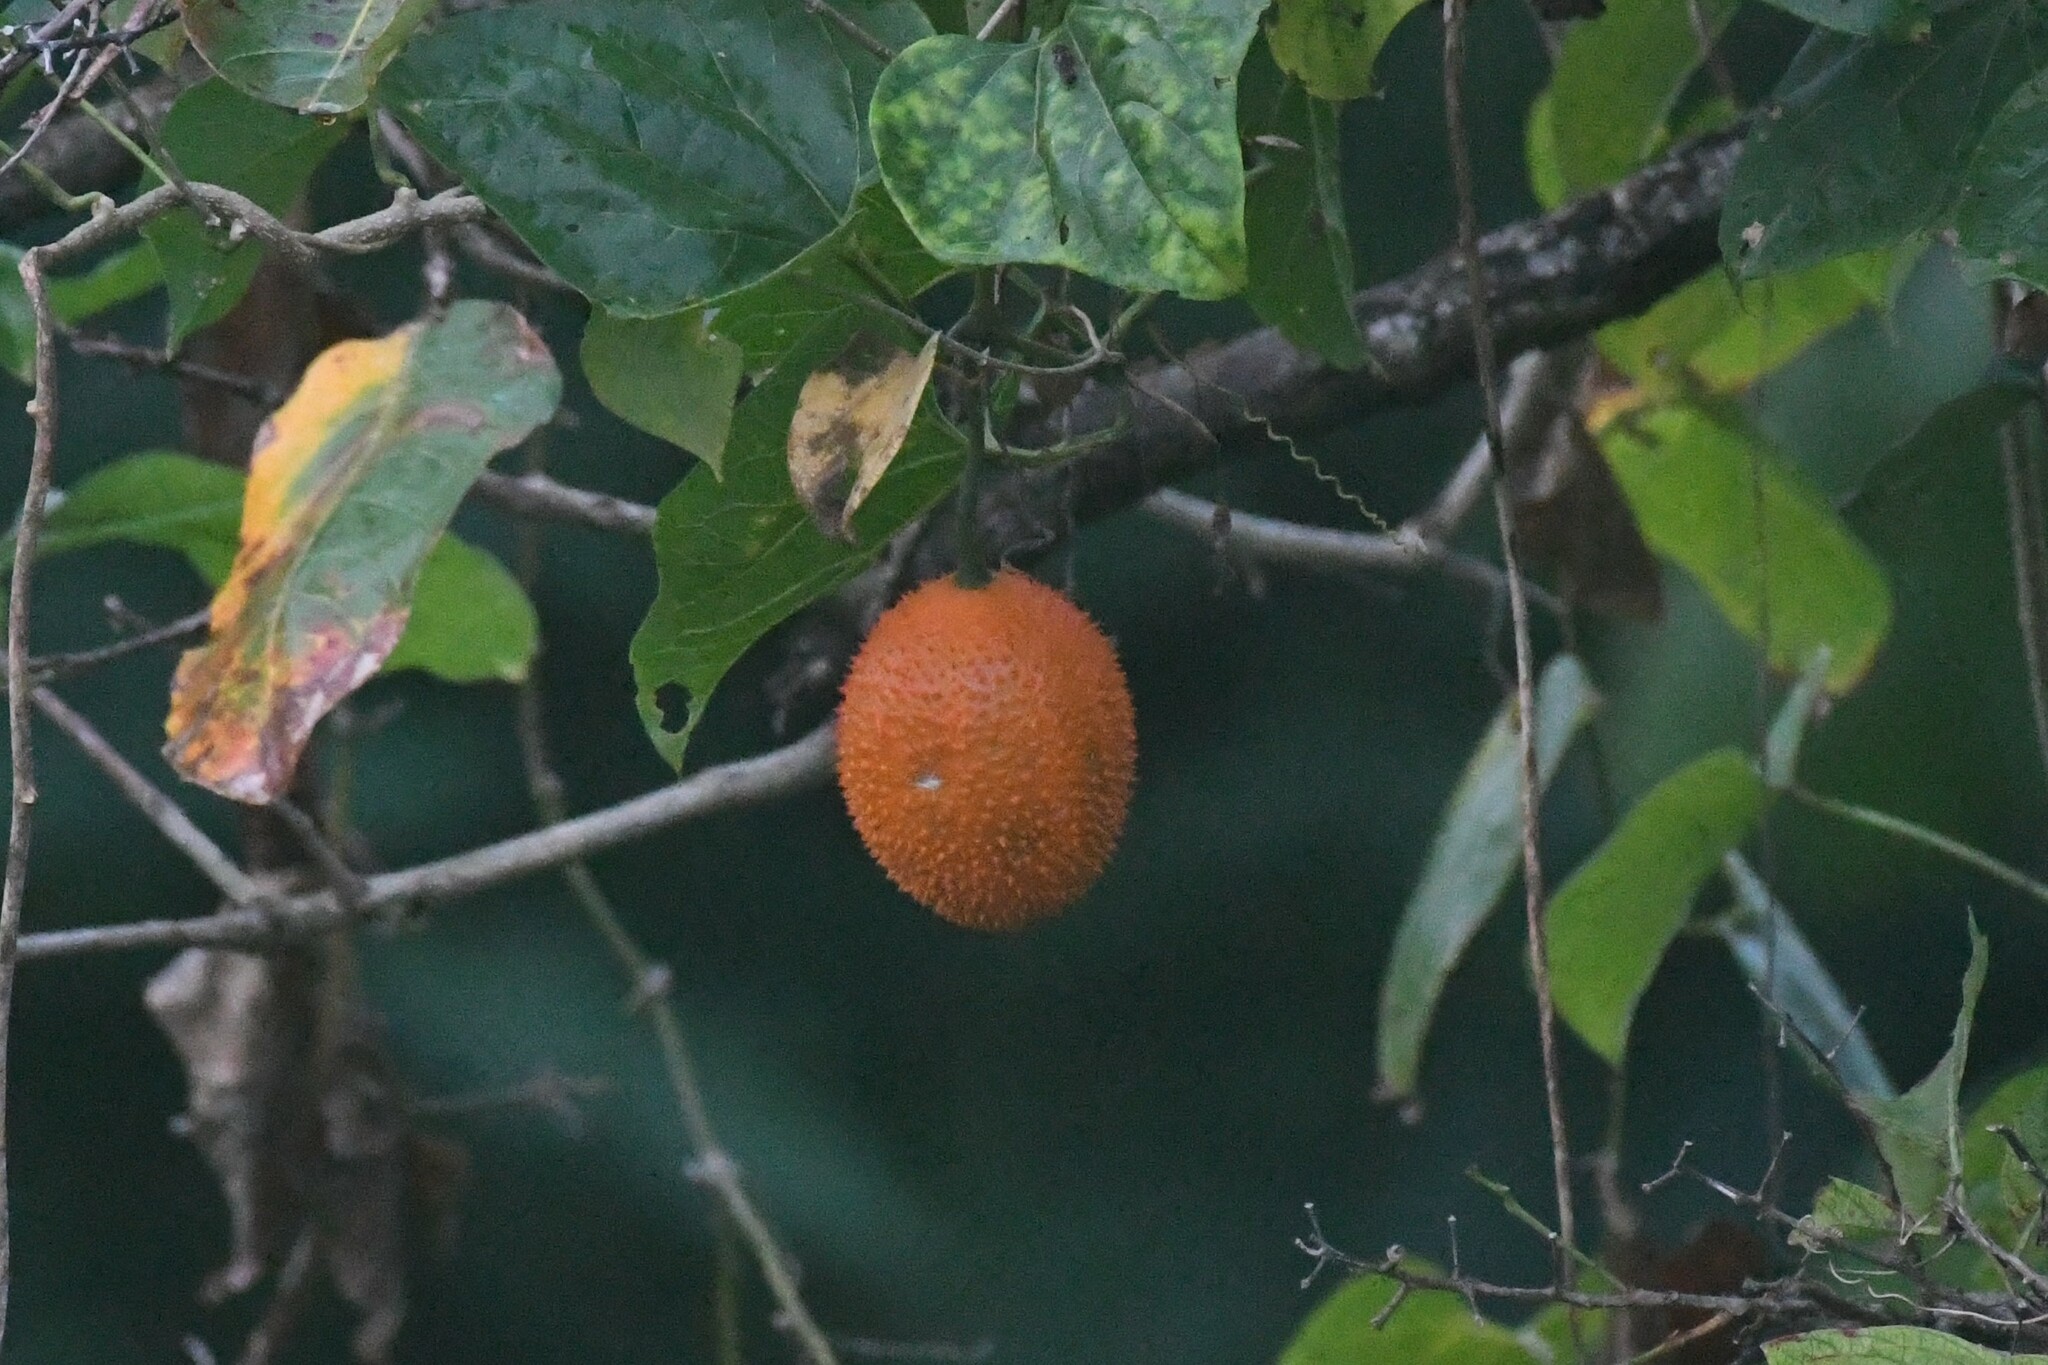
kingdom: Plantae
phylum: Tracheophyta
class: Magnoliopsida
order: Cucurbitales
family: Cucurbitaceae
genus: Momordica
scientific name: Momordica cochinchinensis
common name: Chinese bitter-cucumber
